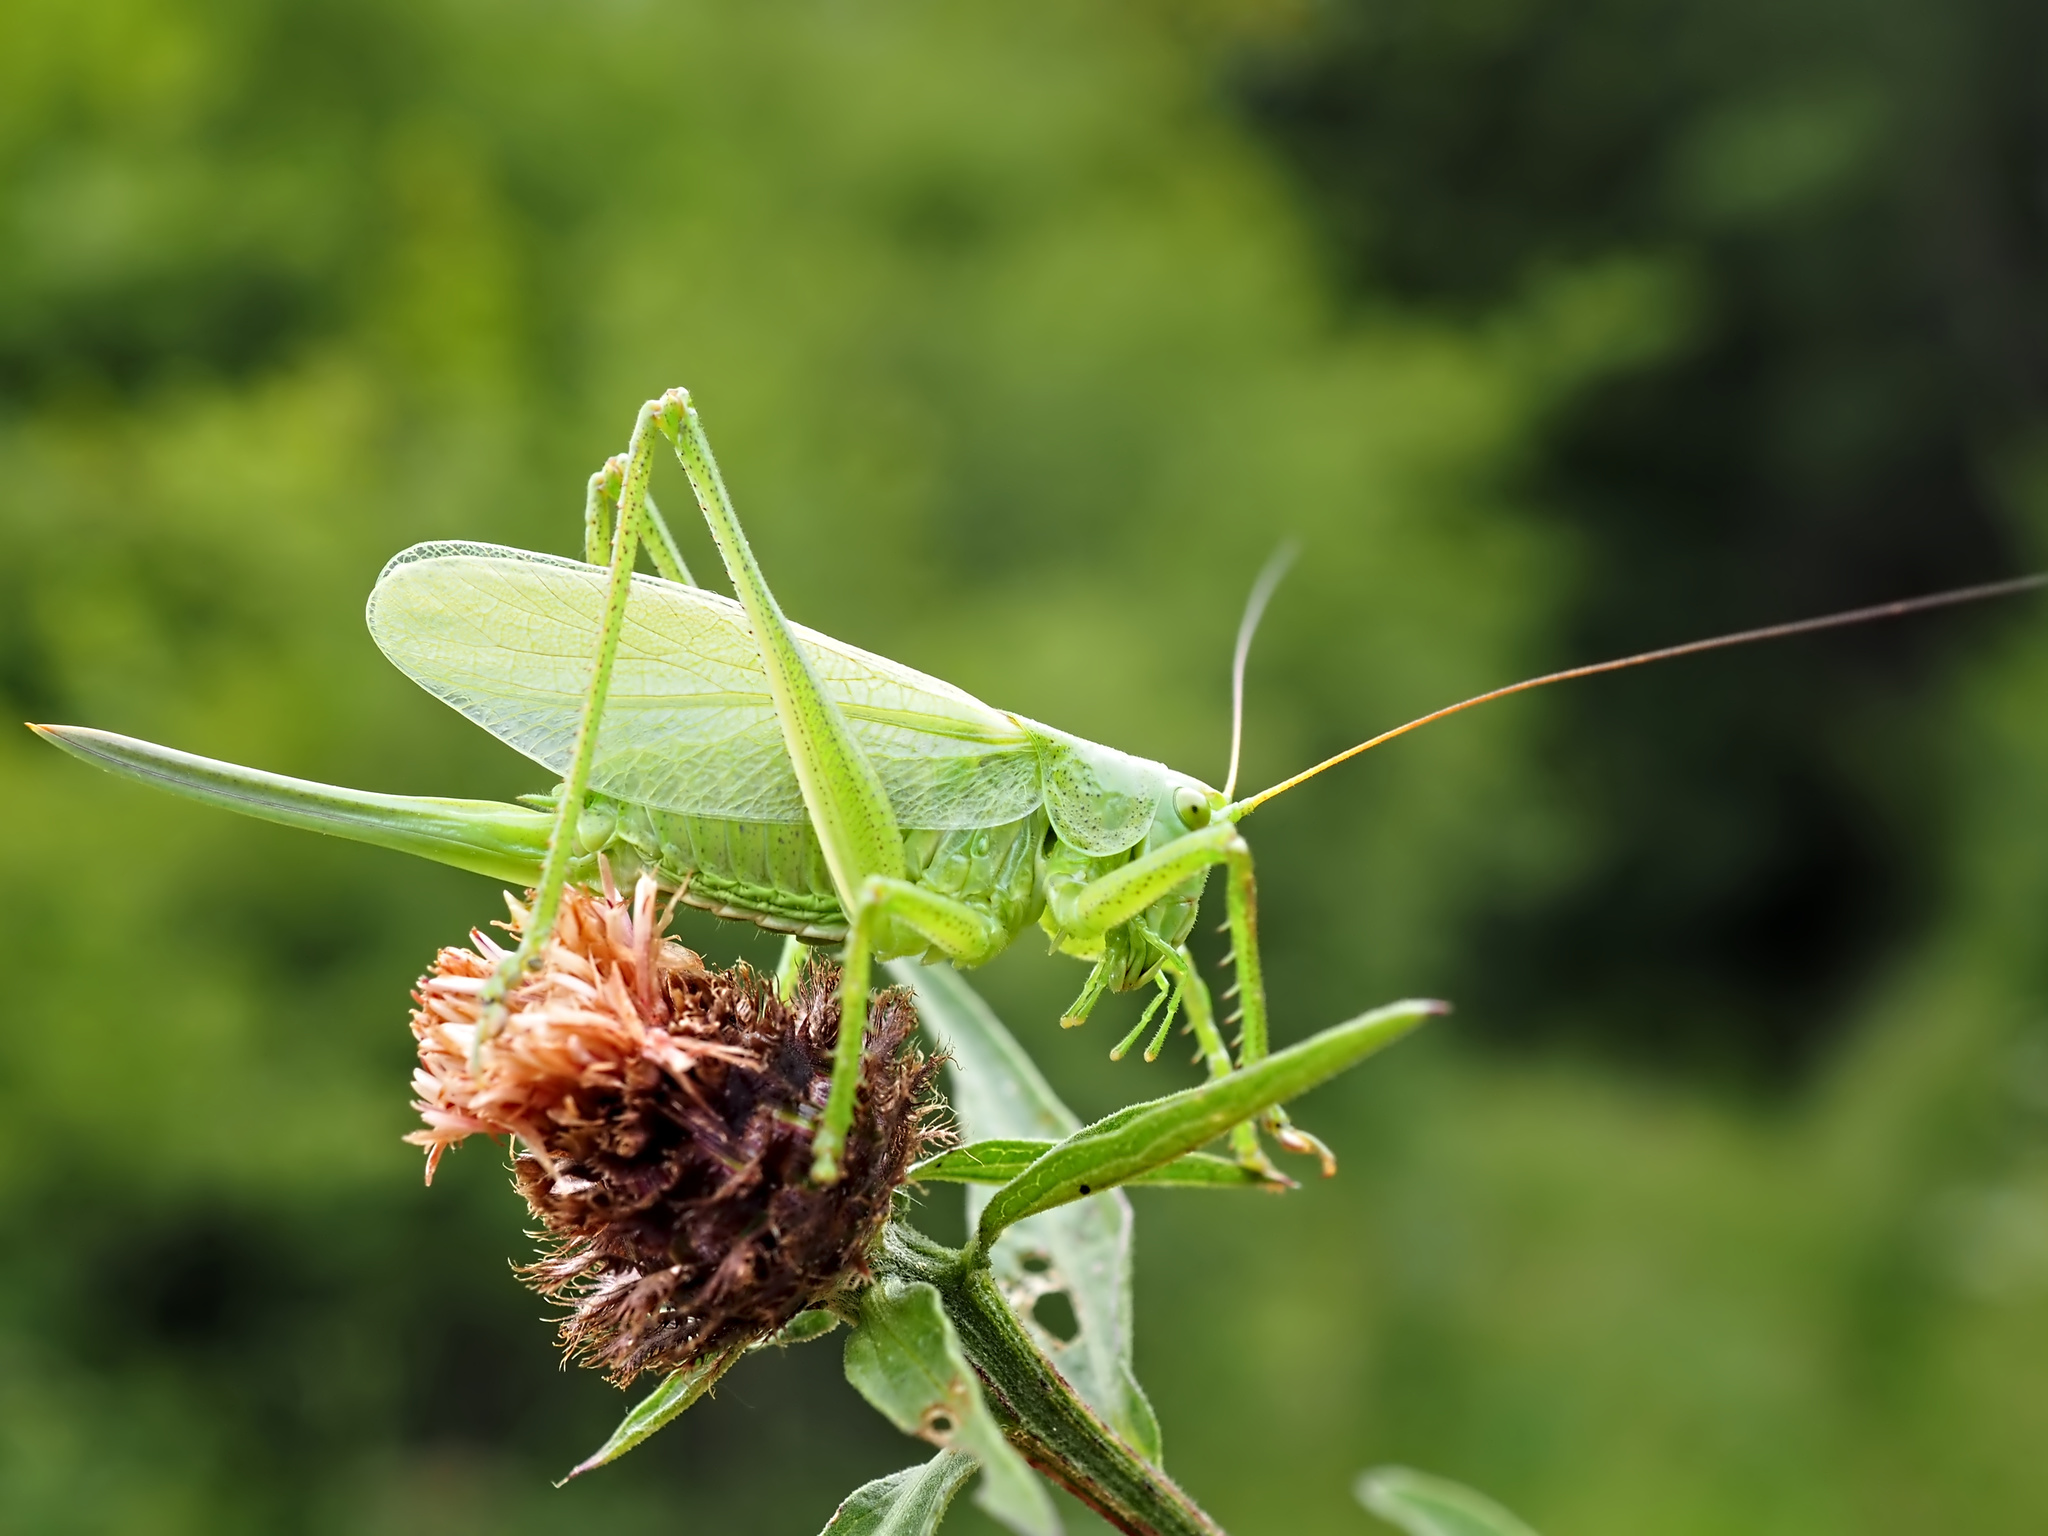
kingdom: Animalia
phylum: Arthropoda
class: Insecta
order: Orthoptera
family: Tettigoniidae
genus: Tettigonia
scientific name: Tettigonia cantans
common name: Upland green bush-cricket
